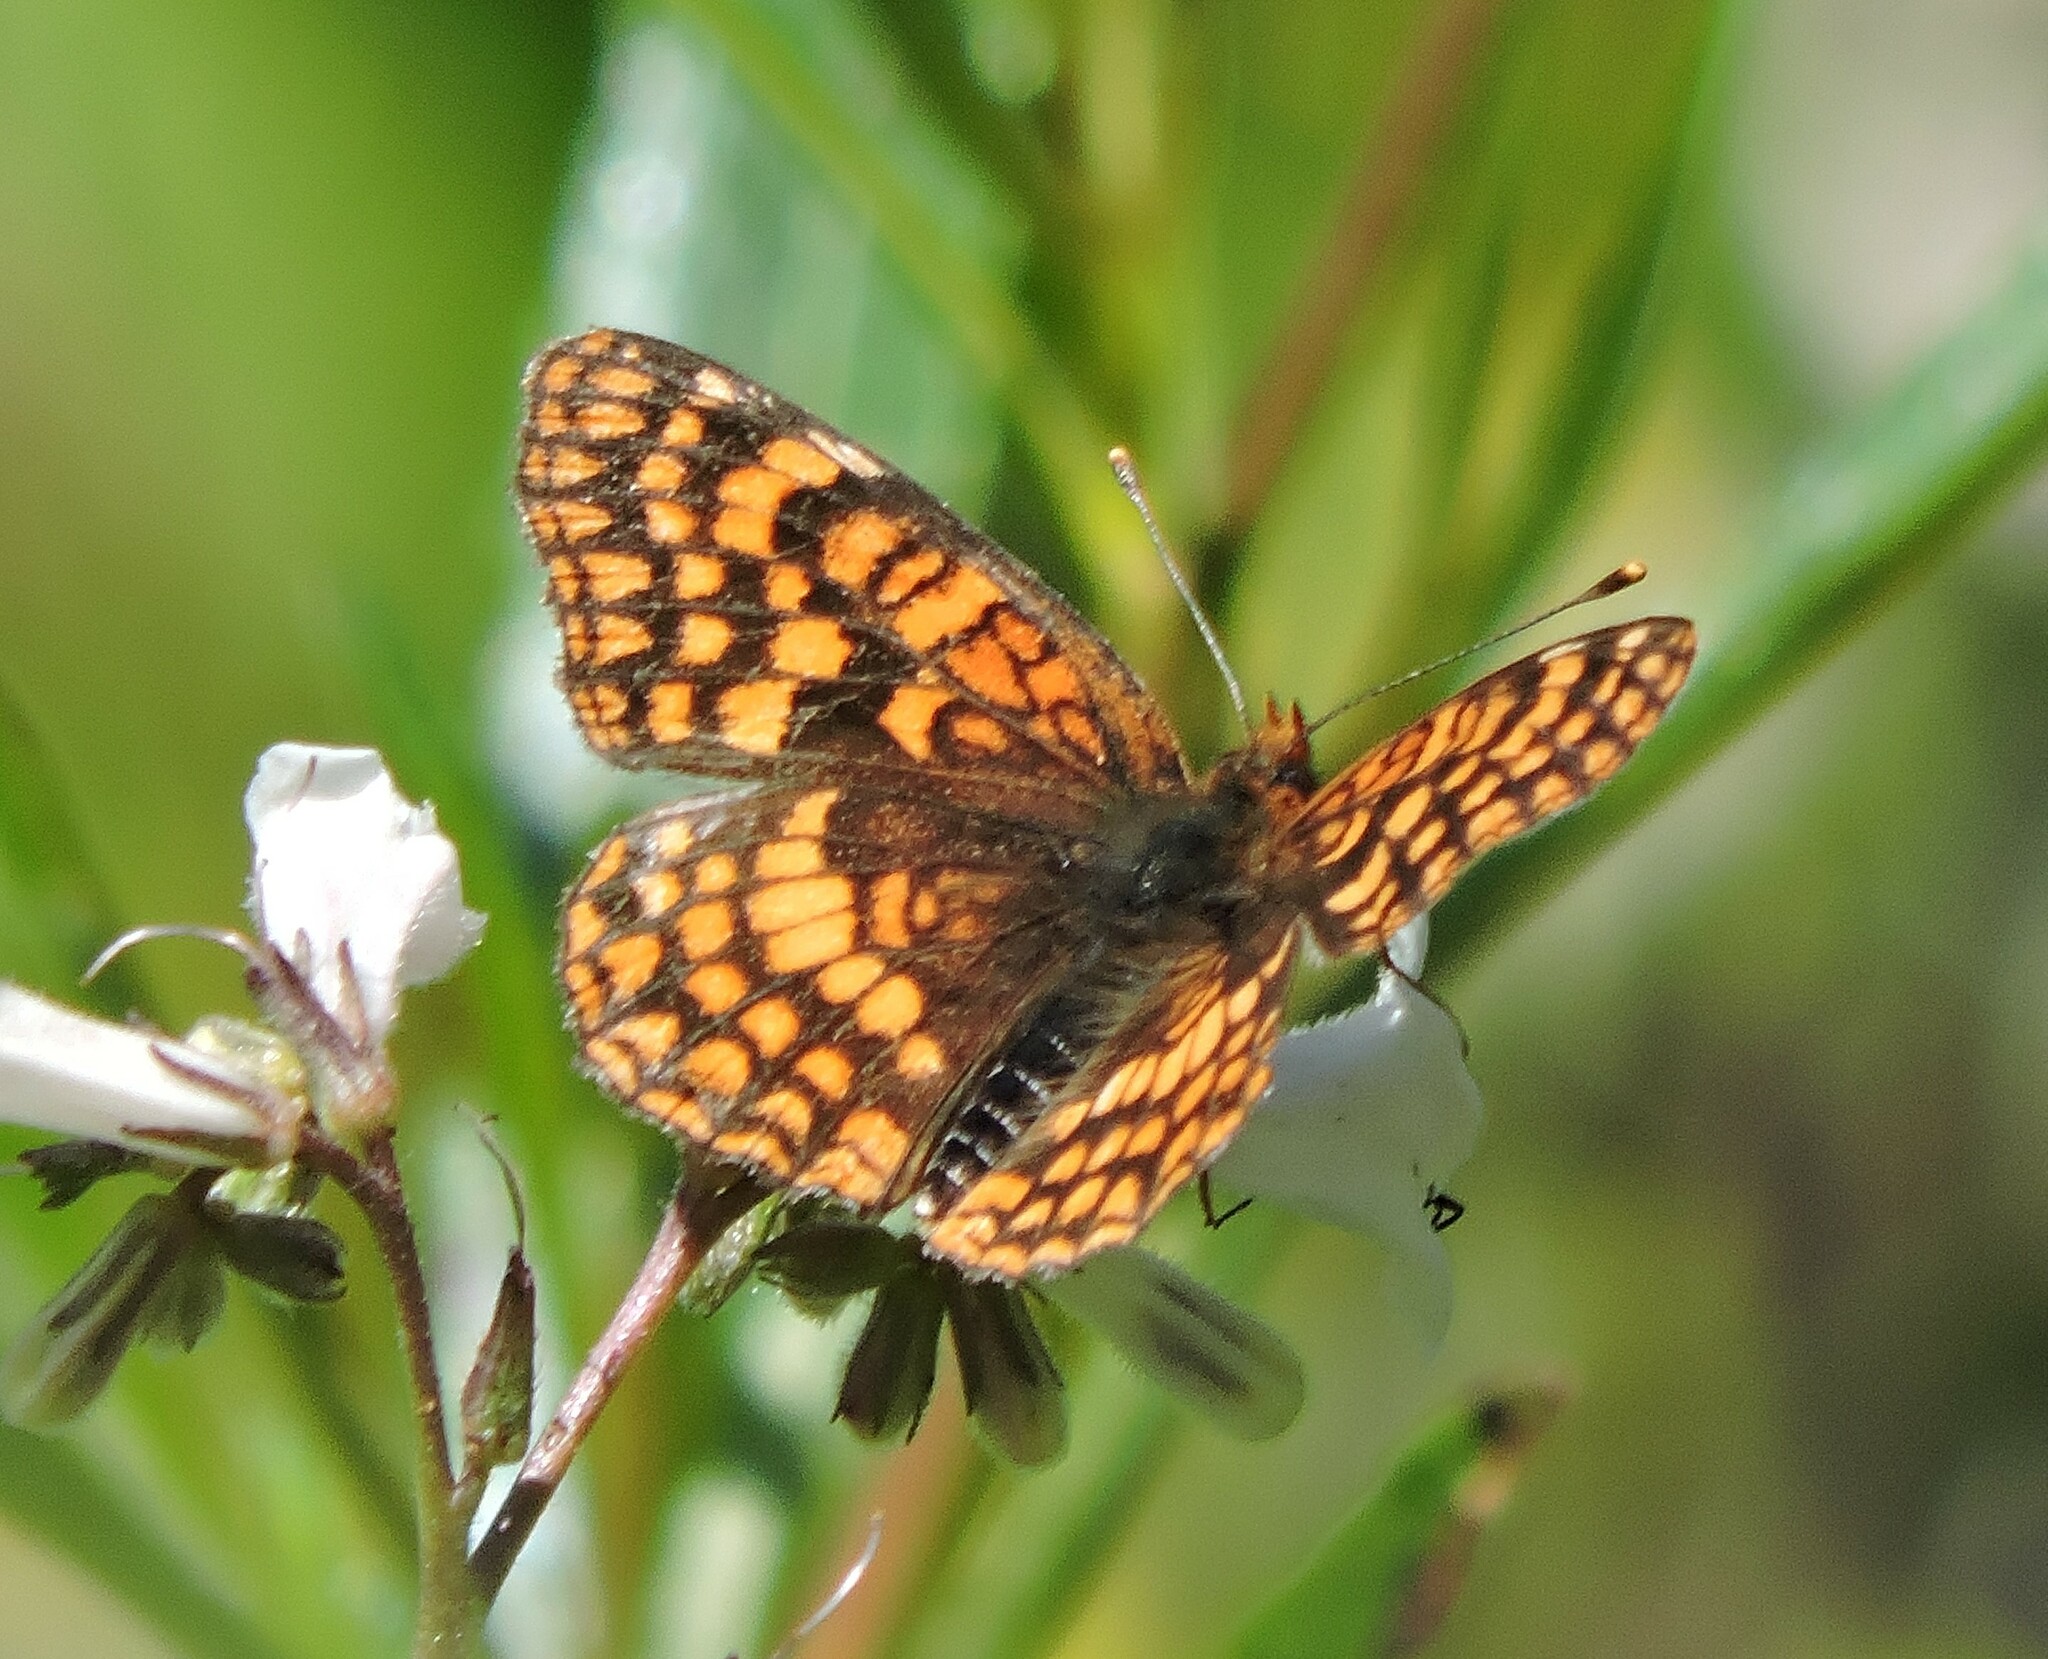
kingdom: Animalia
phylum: Arthropoda
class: Insecta
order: Lepidoptera
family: Nymphalidae
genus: Chlosyne
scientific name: Chlosyne palla
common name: Northern checkerspot
